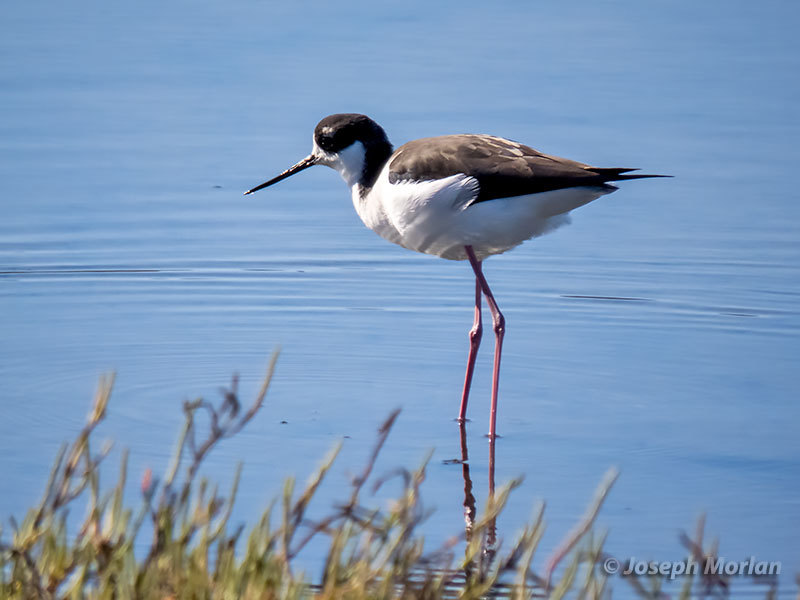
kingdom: Animalia
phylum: Chordata
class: Aves
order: Charadriiformes
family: Recurvirostridae
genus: Himantopus
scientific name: Himantopus mexicanus
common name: Black-necked stilt
